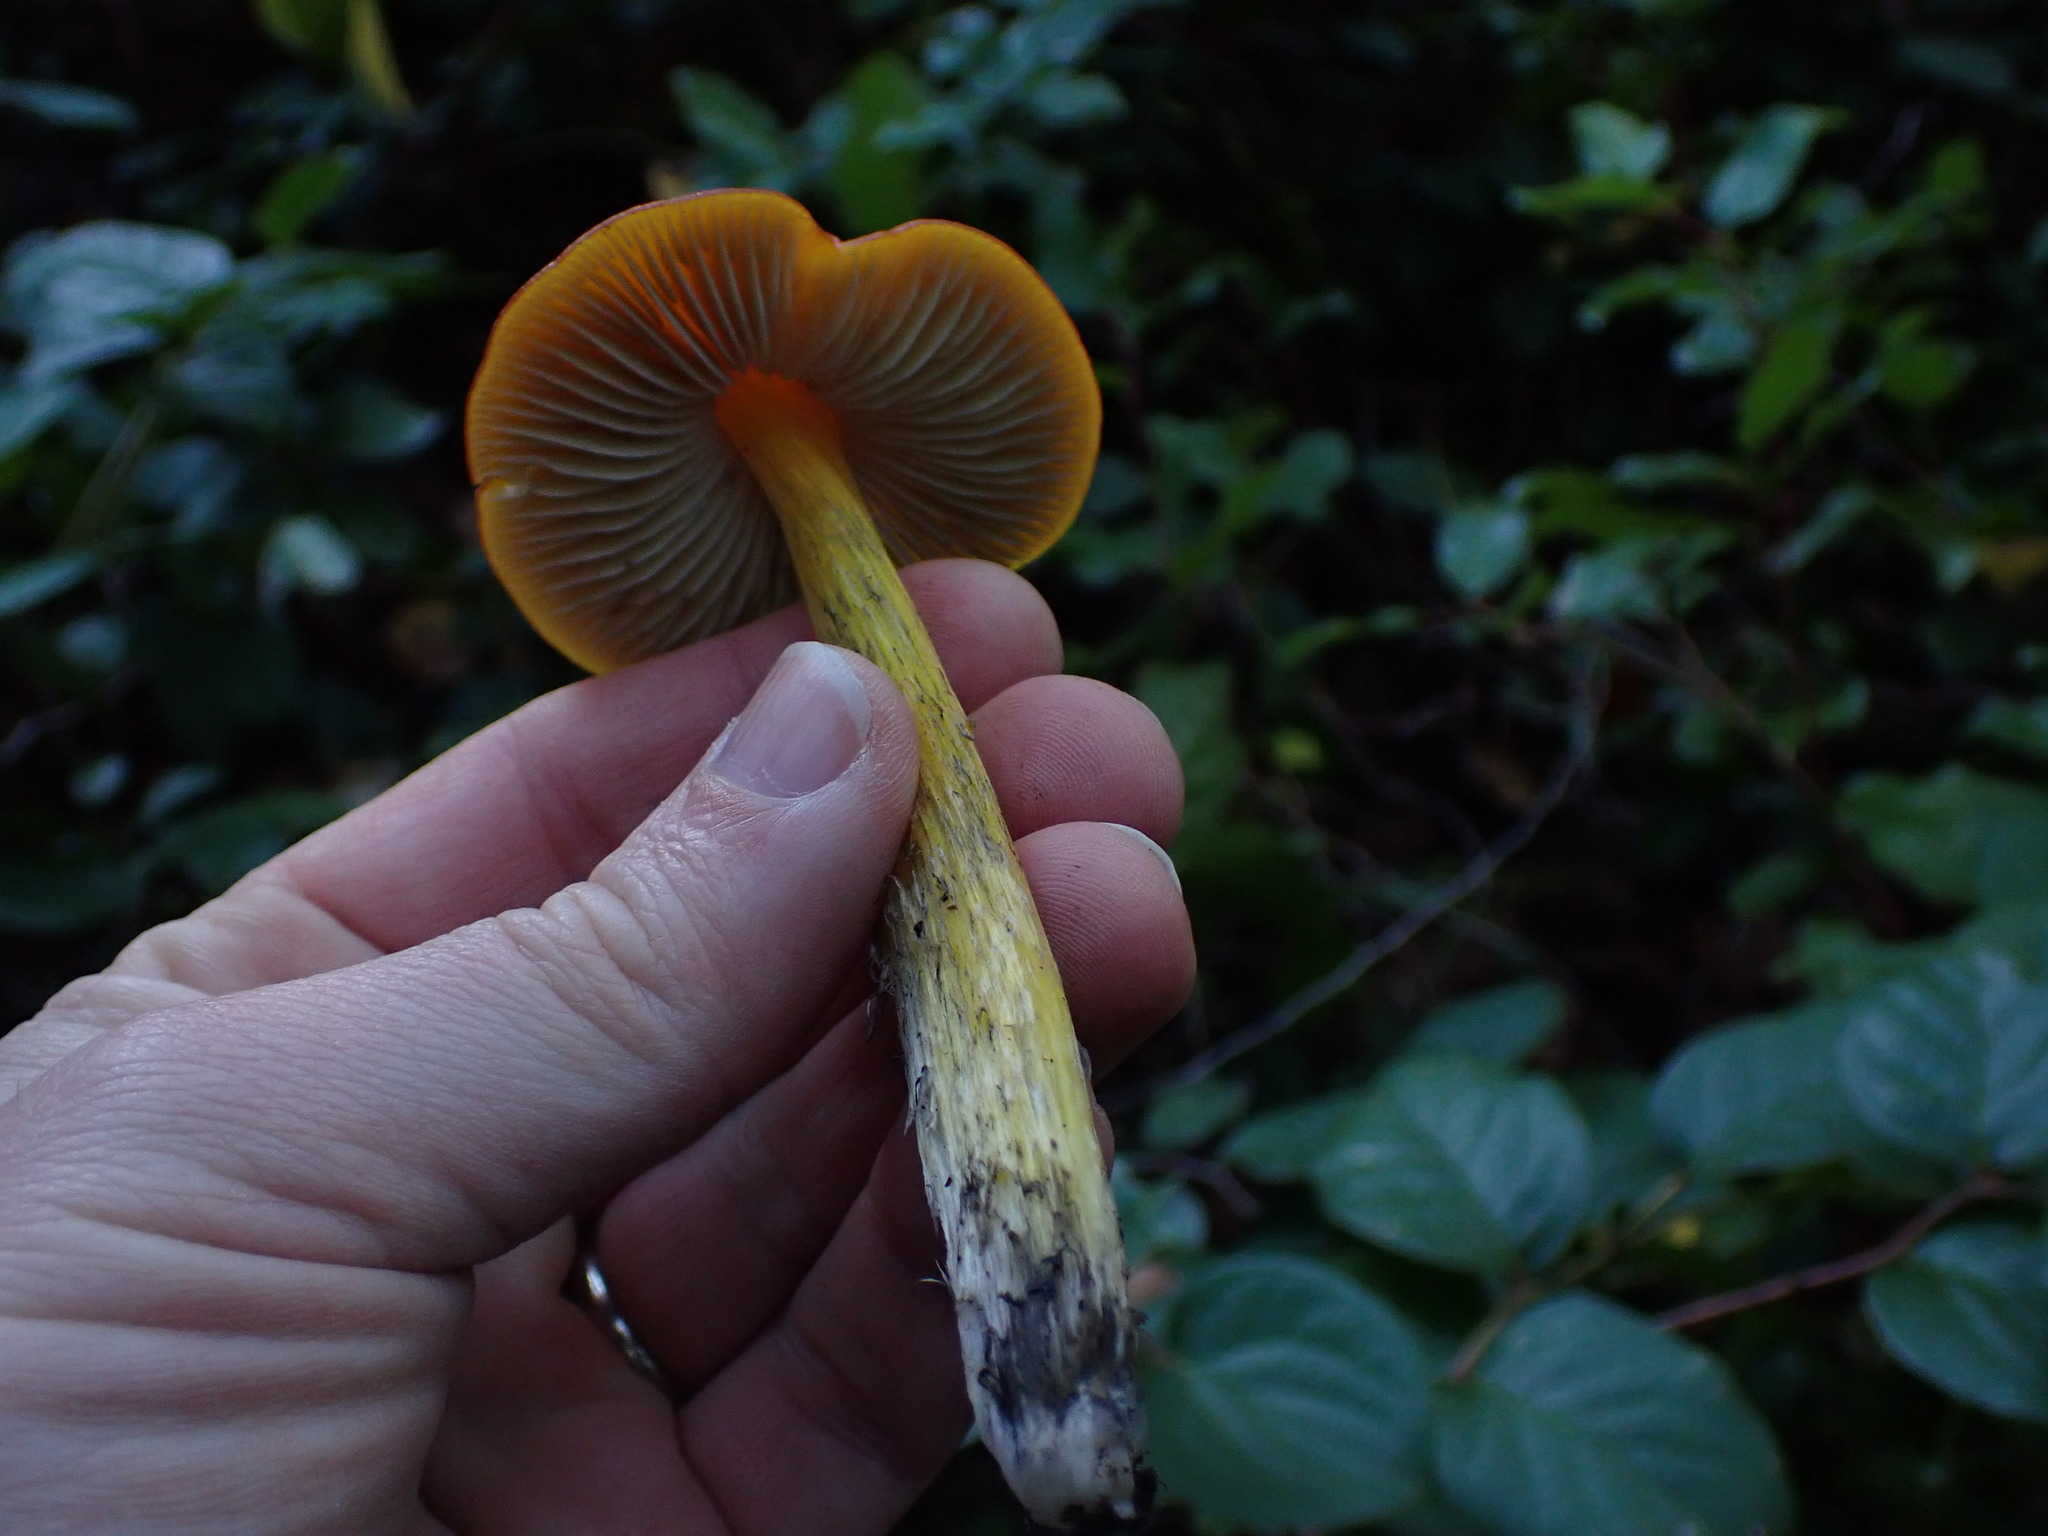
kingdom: Fungi
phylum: Basidiomycota
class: Agaricomycetes
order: Agaricales
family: Hygrophoraceae
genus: Hygrocybe
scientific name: Hygrocybe singeri
